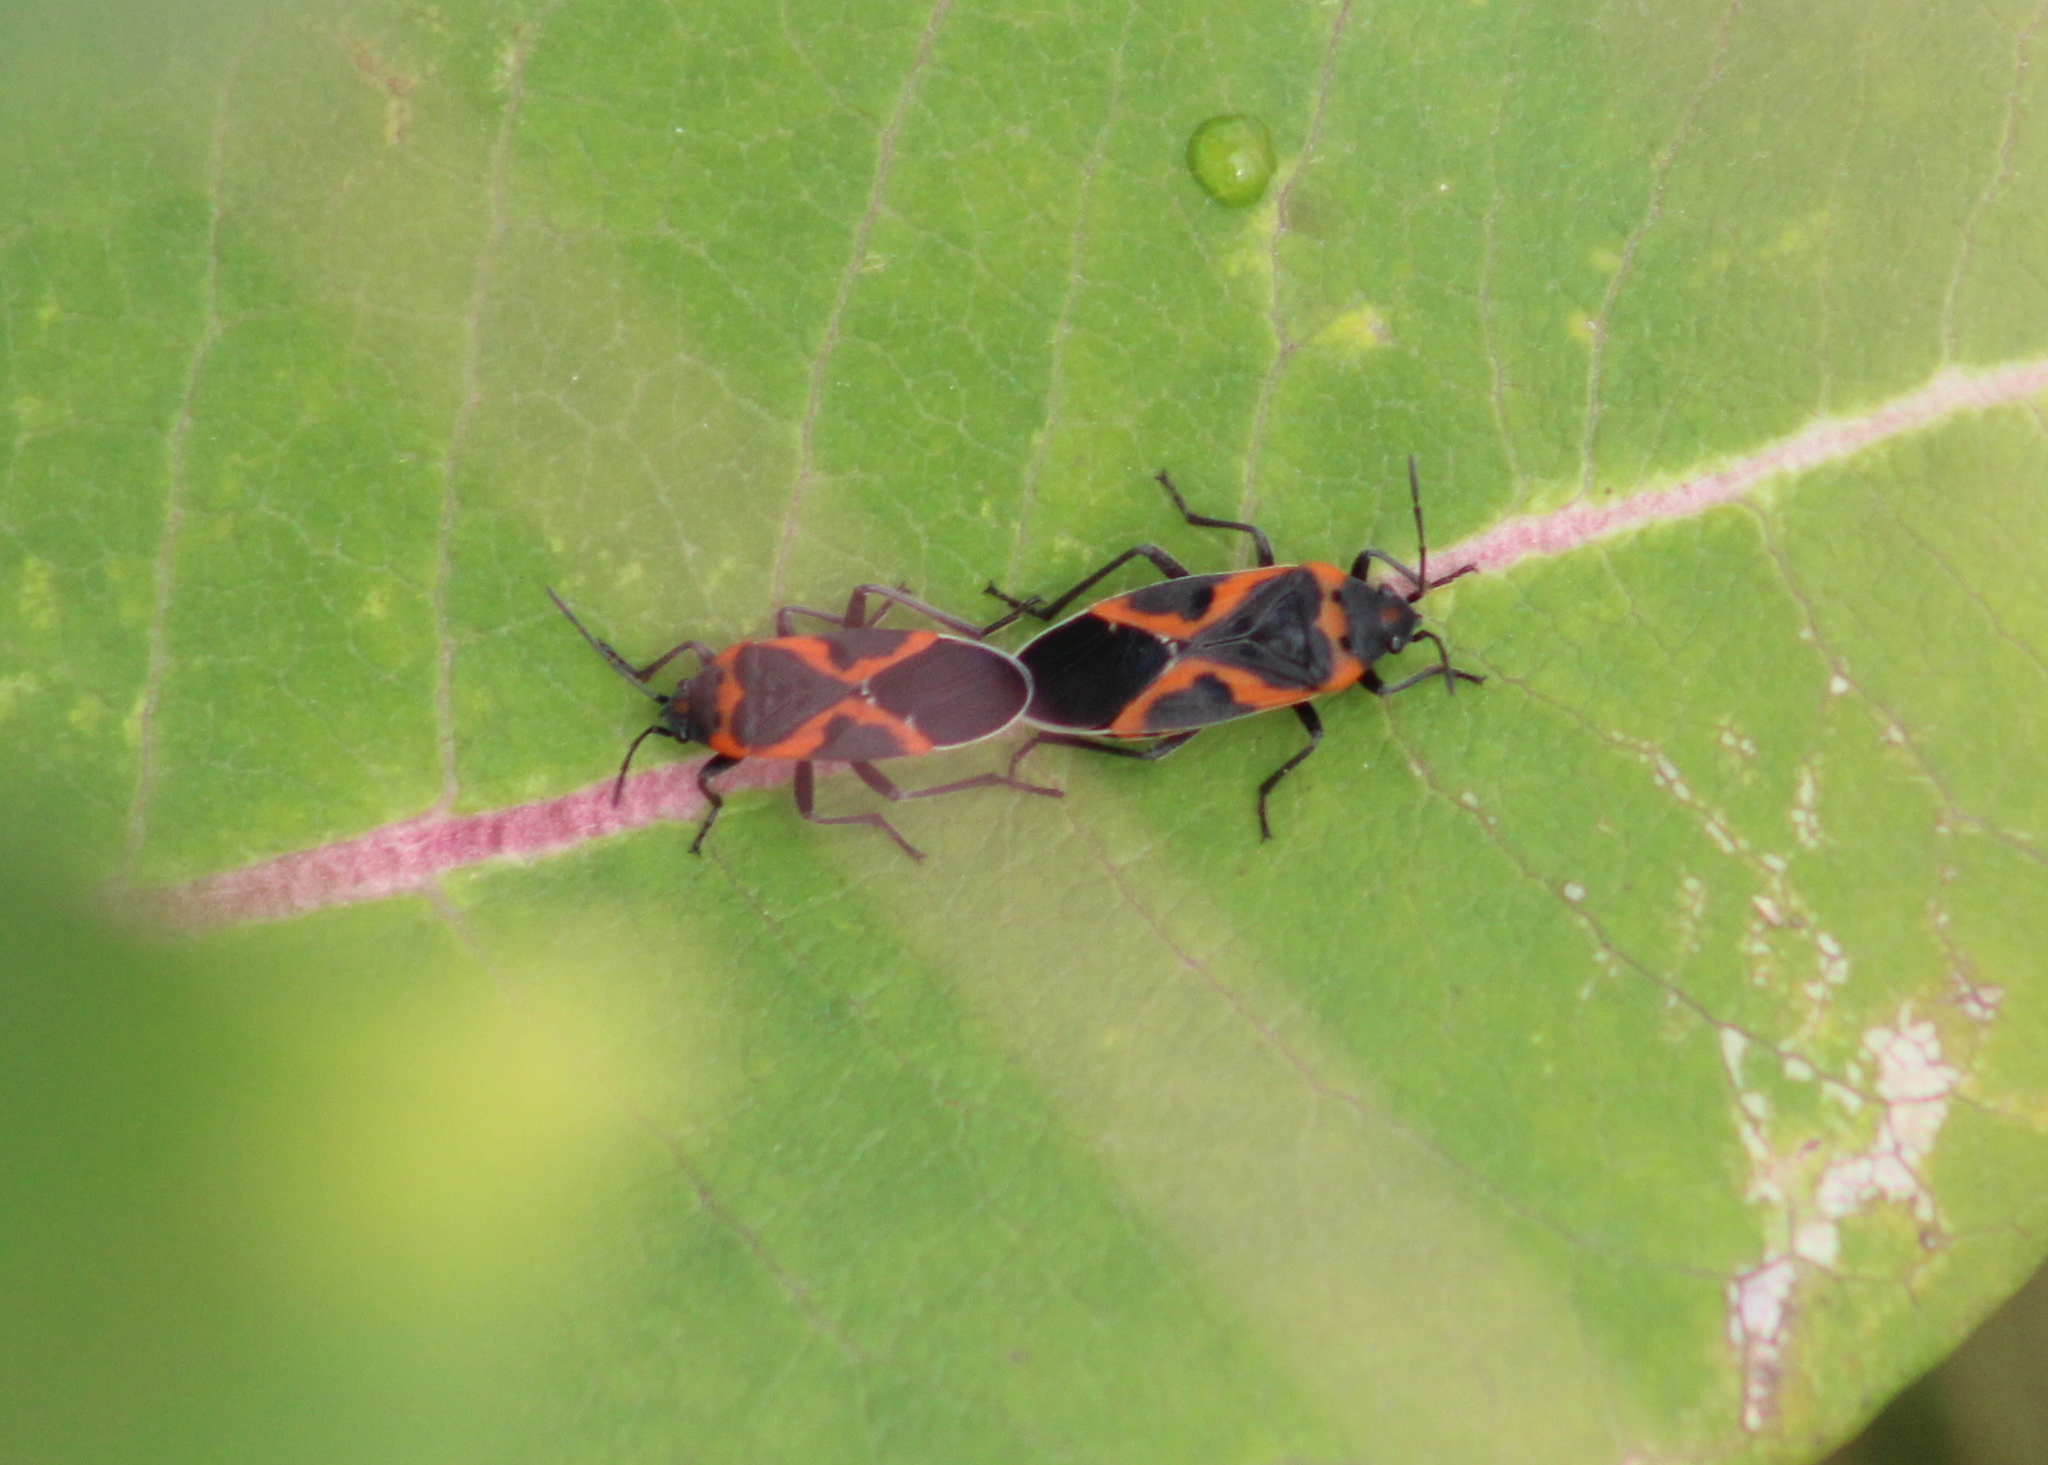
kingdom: Animalia
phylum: Arthropoda
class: Insecta
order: Hemiptera
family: Lygaeidae
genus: Lygaeus
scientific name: Lygaeus kalmii
